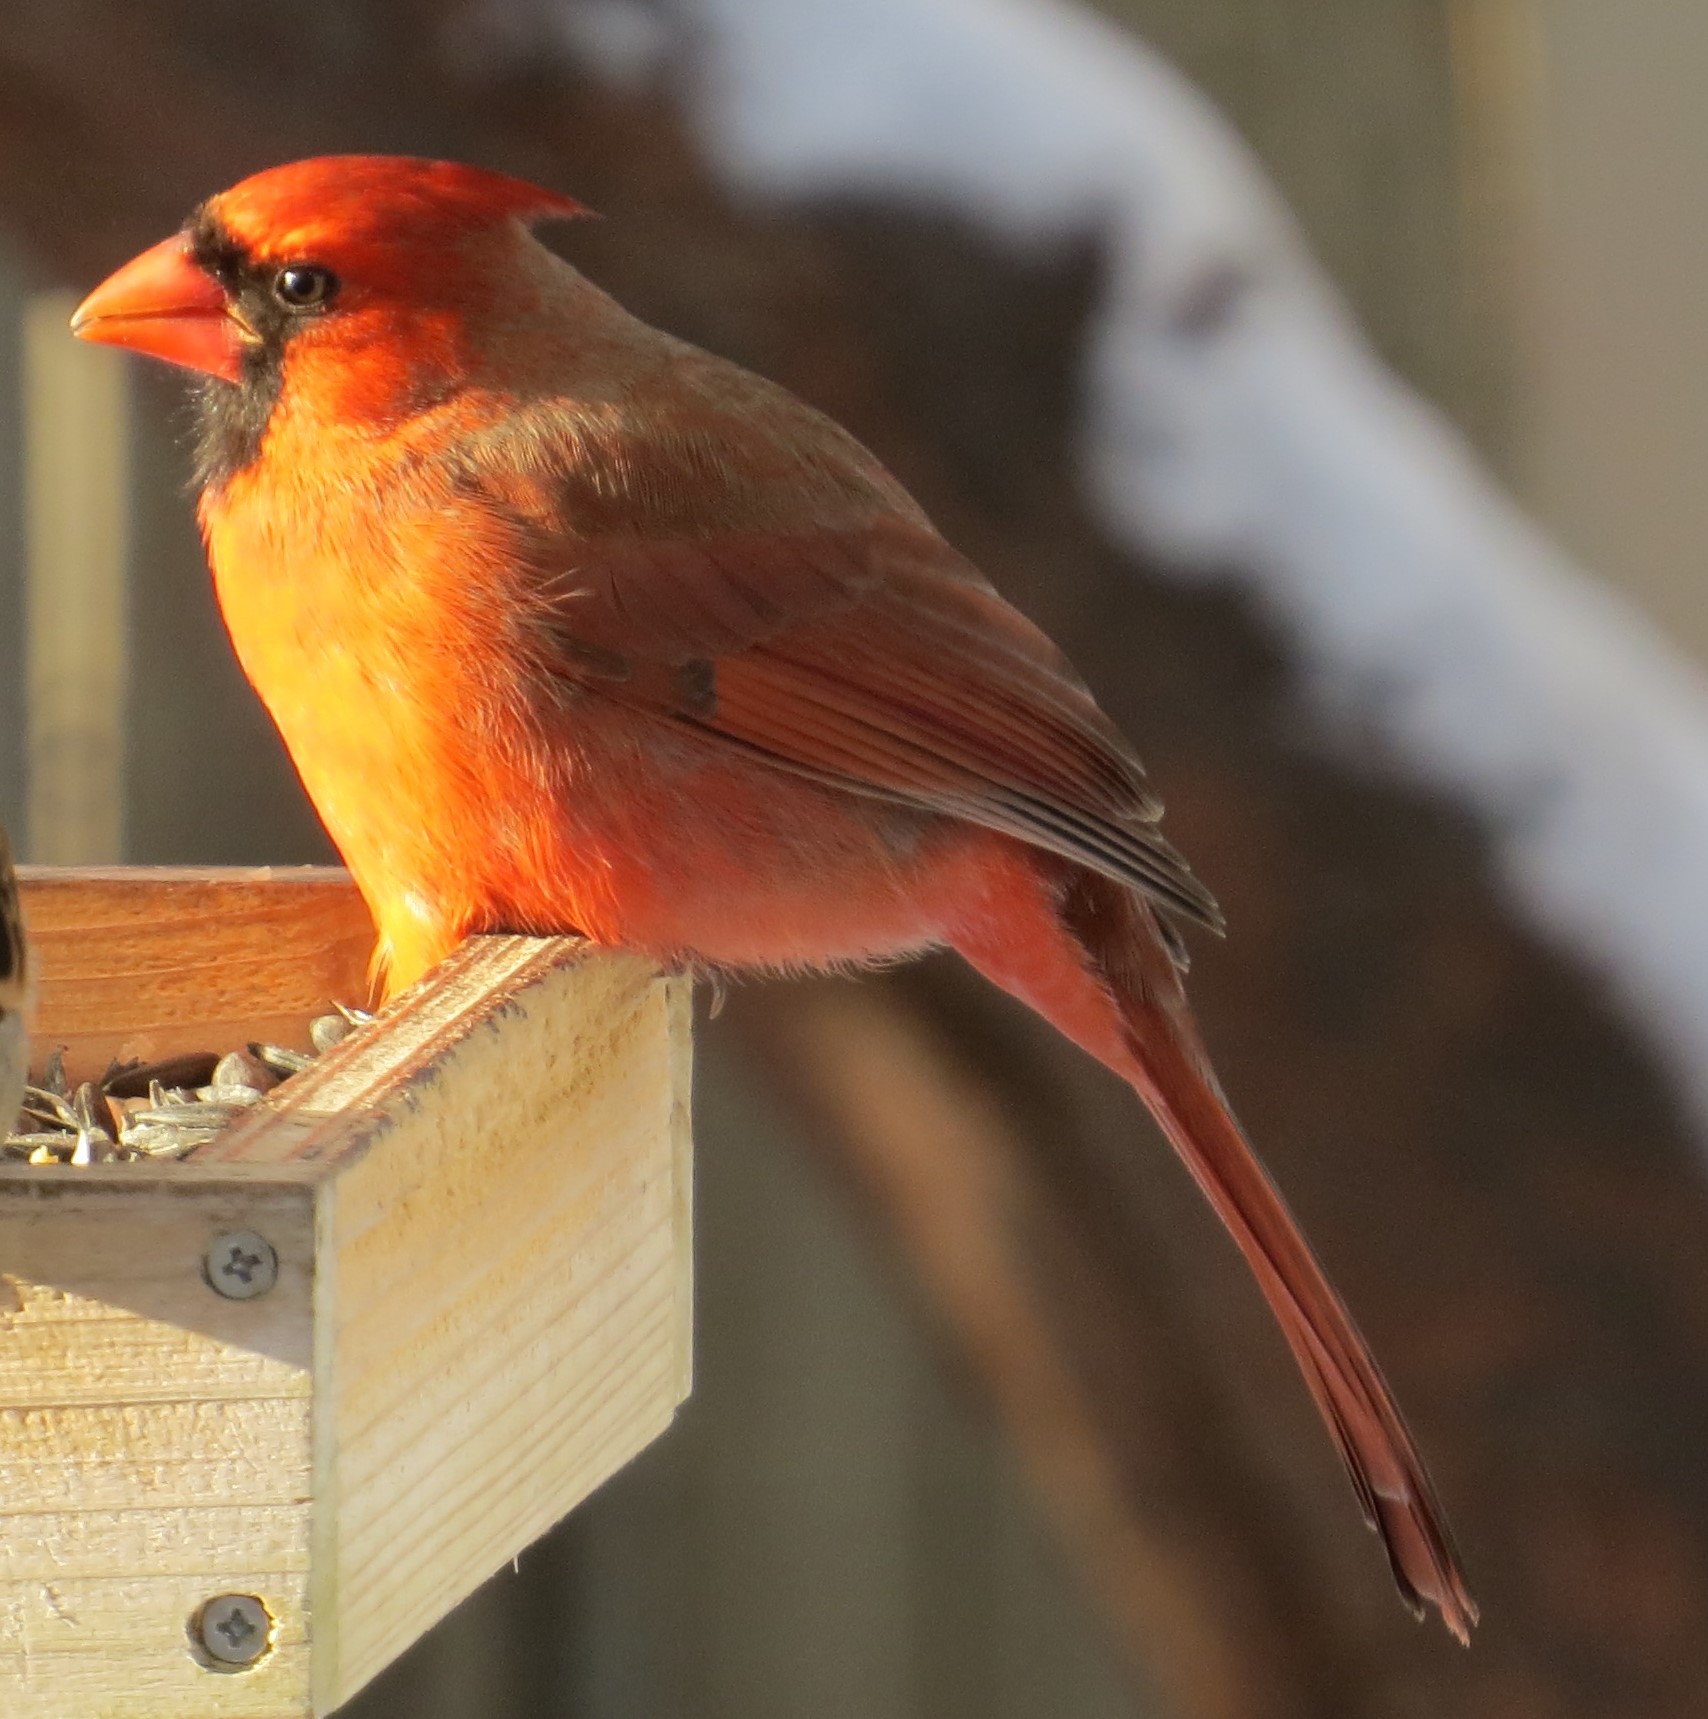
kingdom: Animalia
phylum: Chordata
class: Aves
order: Passeriformes
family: Cardinalidae
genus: Cardinalis
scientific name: Cardinalis cardinalis
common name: Northern cardinal
